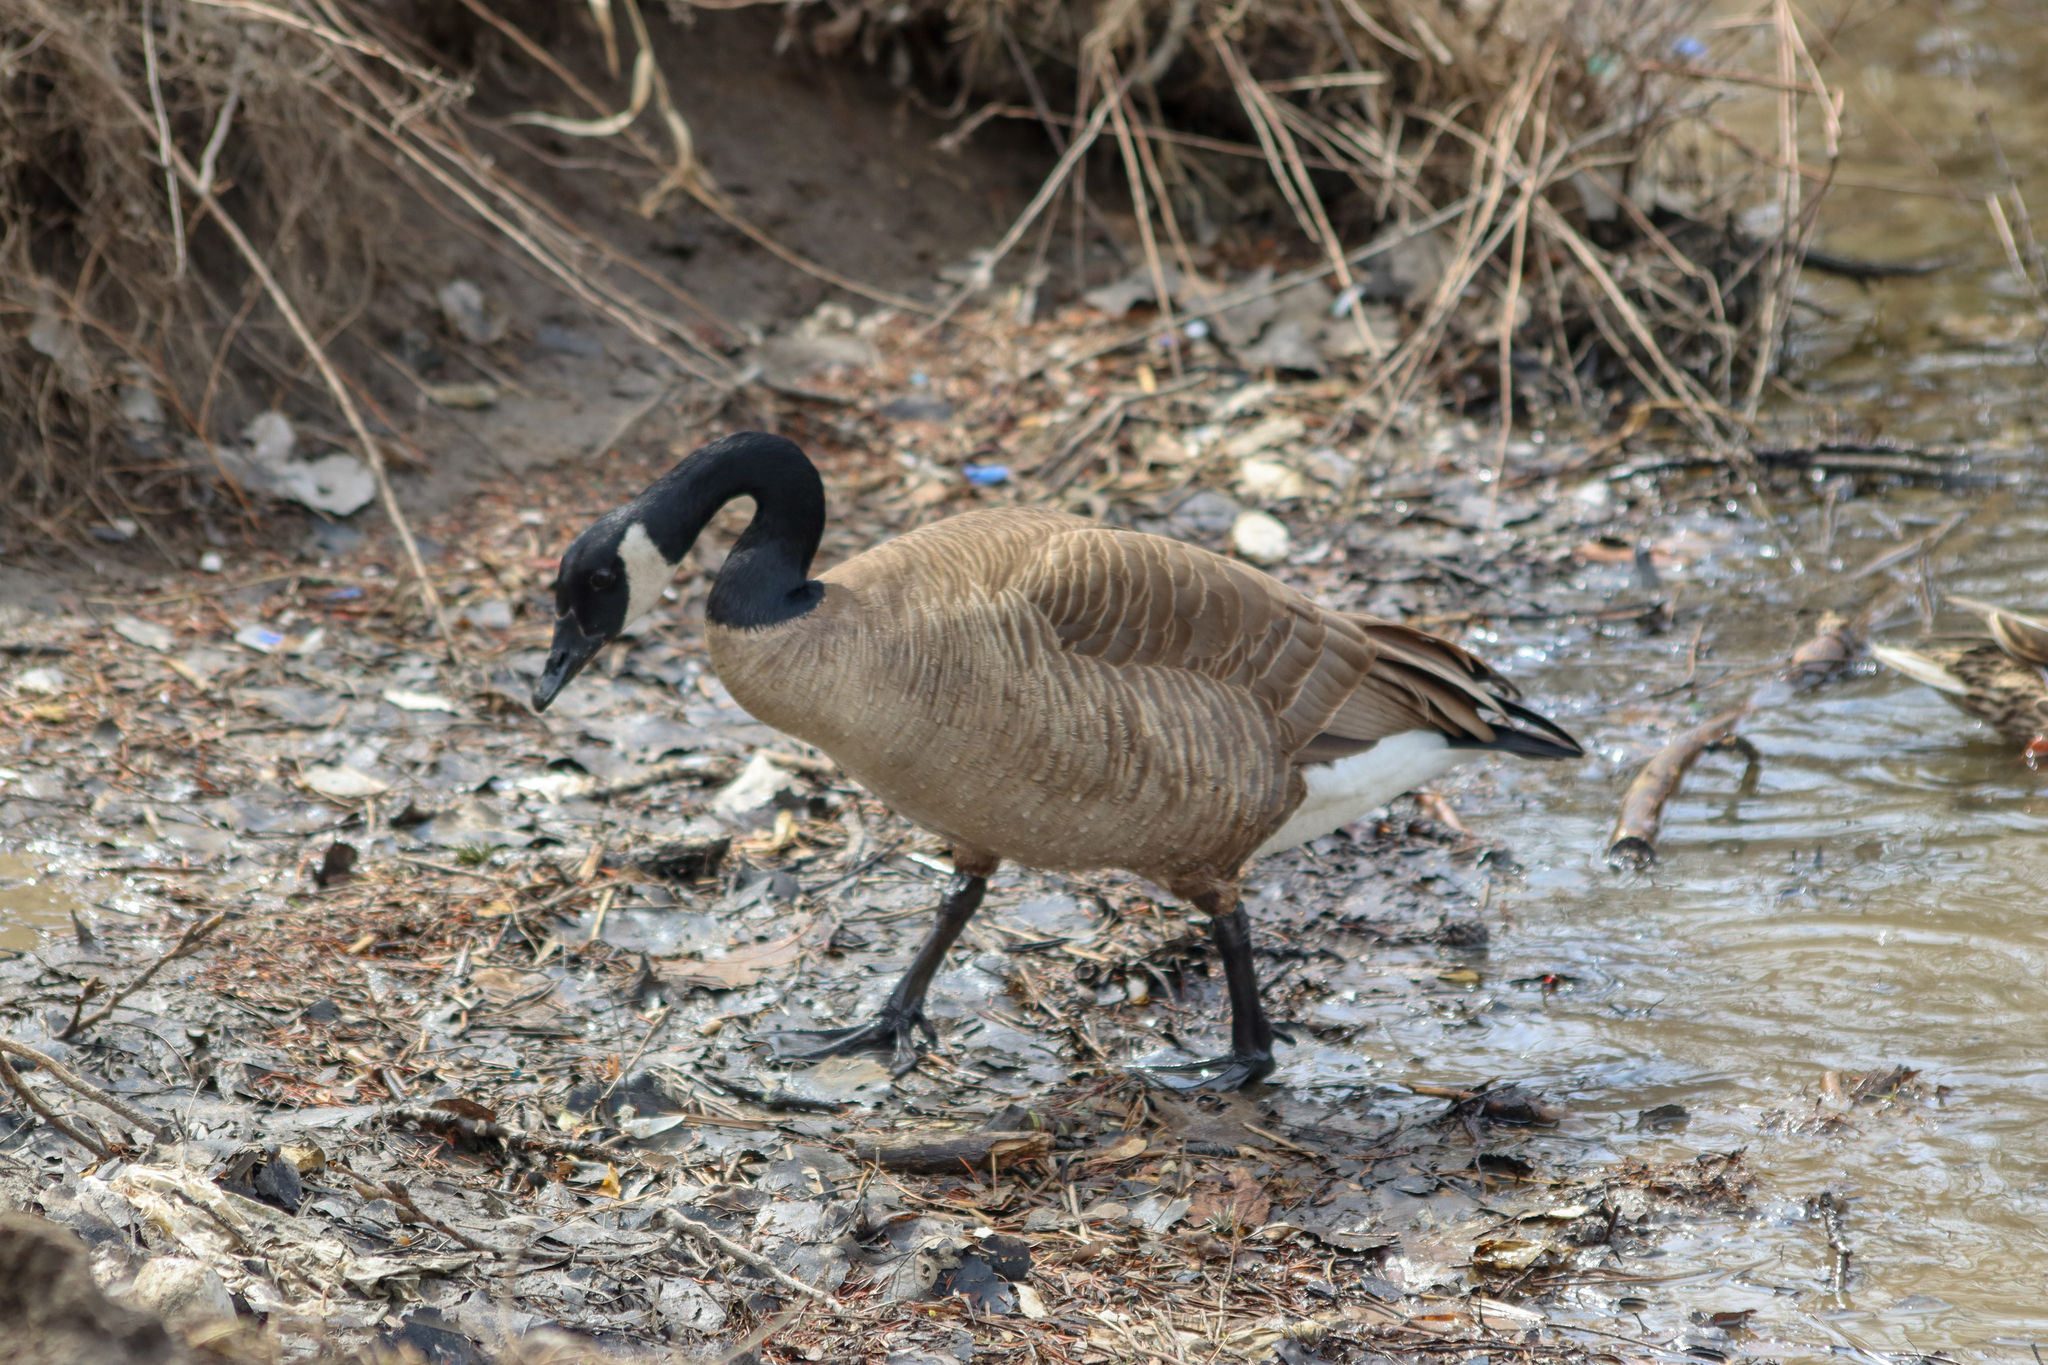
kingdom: Animalia
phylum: Chordata
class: Aves
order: Anseriformes
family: Anatidae
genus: Branta
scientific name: Branta canadensis
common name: Canada goose
